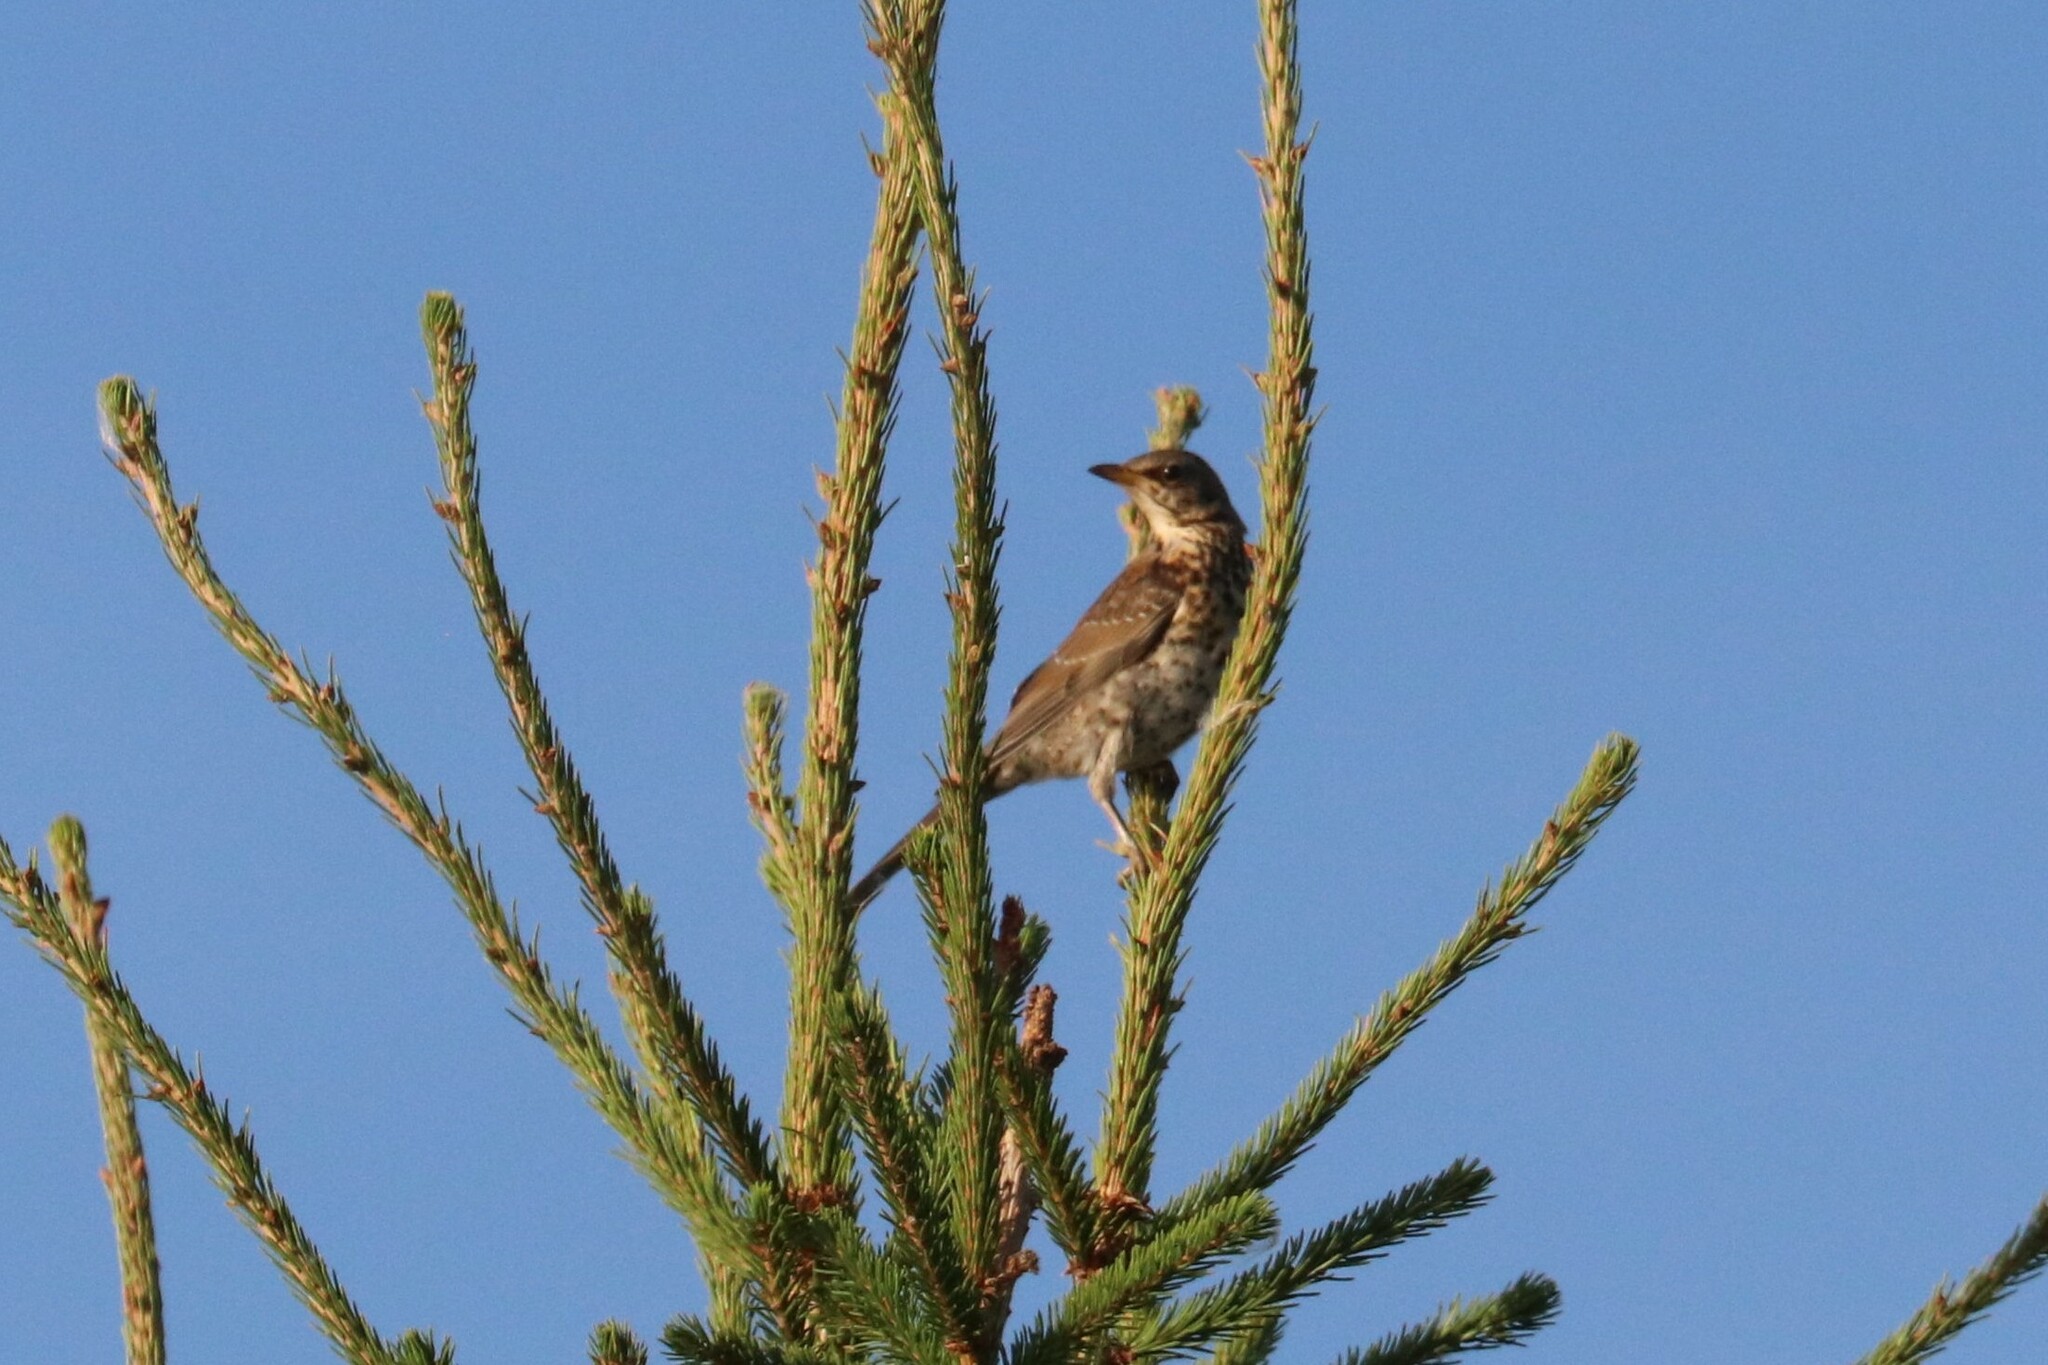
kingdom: Animalia
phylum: Chordata
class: Aves
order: Passeriformes
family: Turdidae
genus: Turdus
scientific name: Turdus pilaris
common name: Fieldfare
